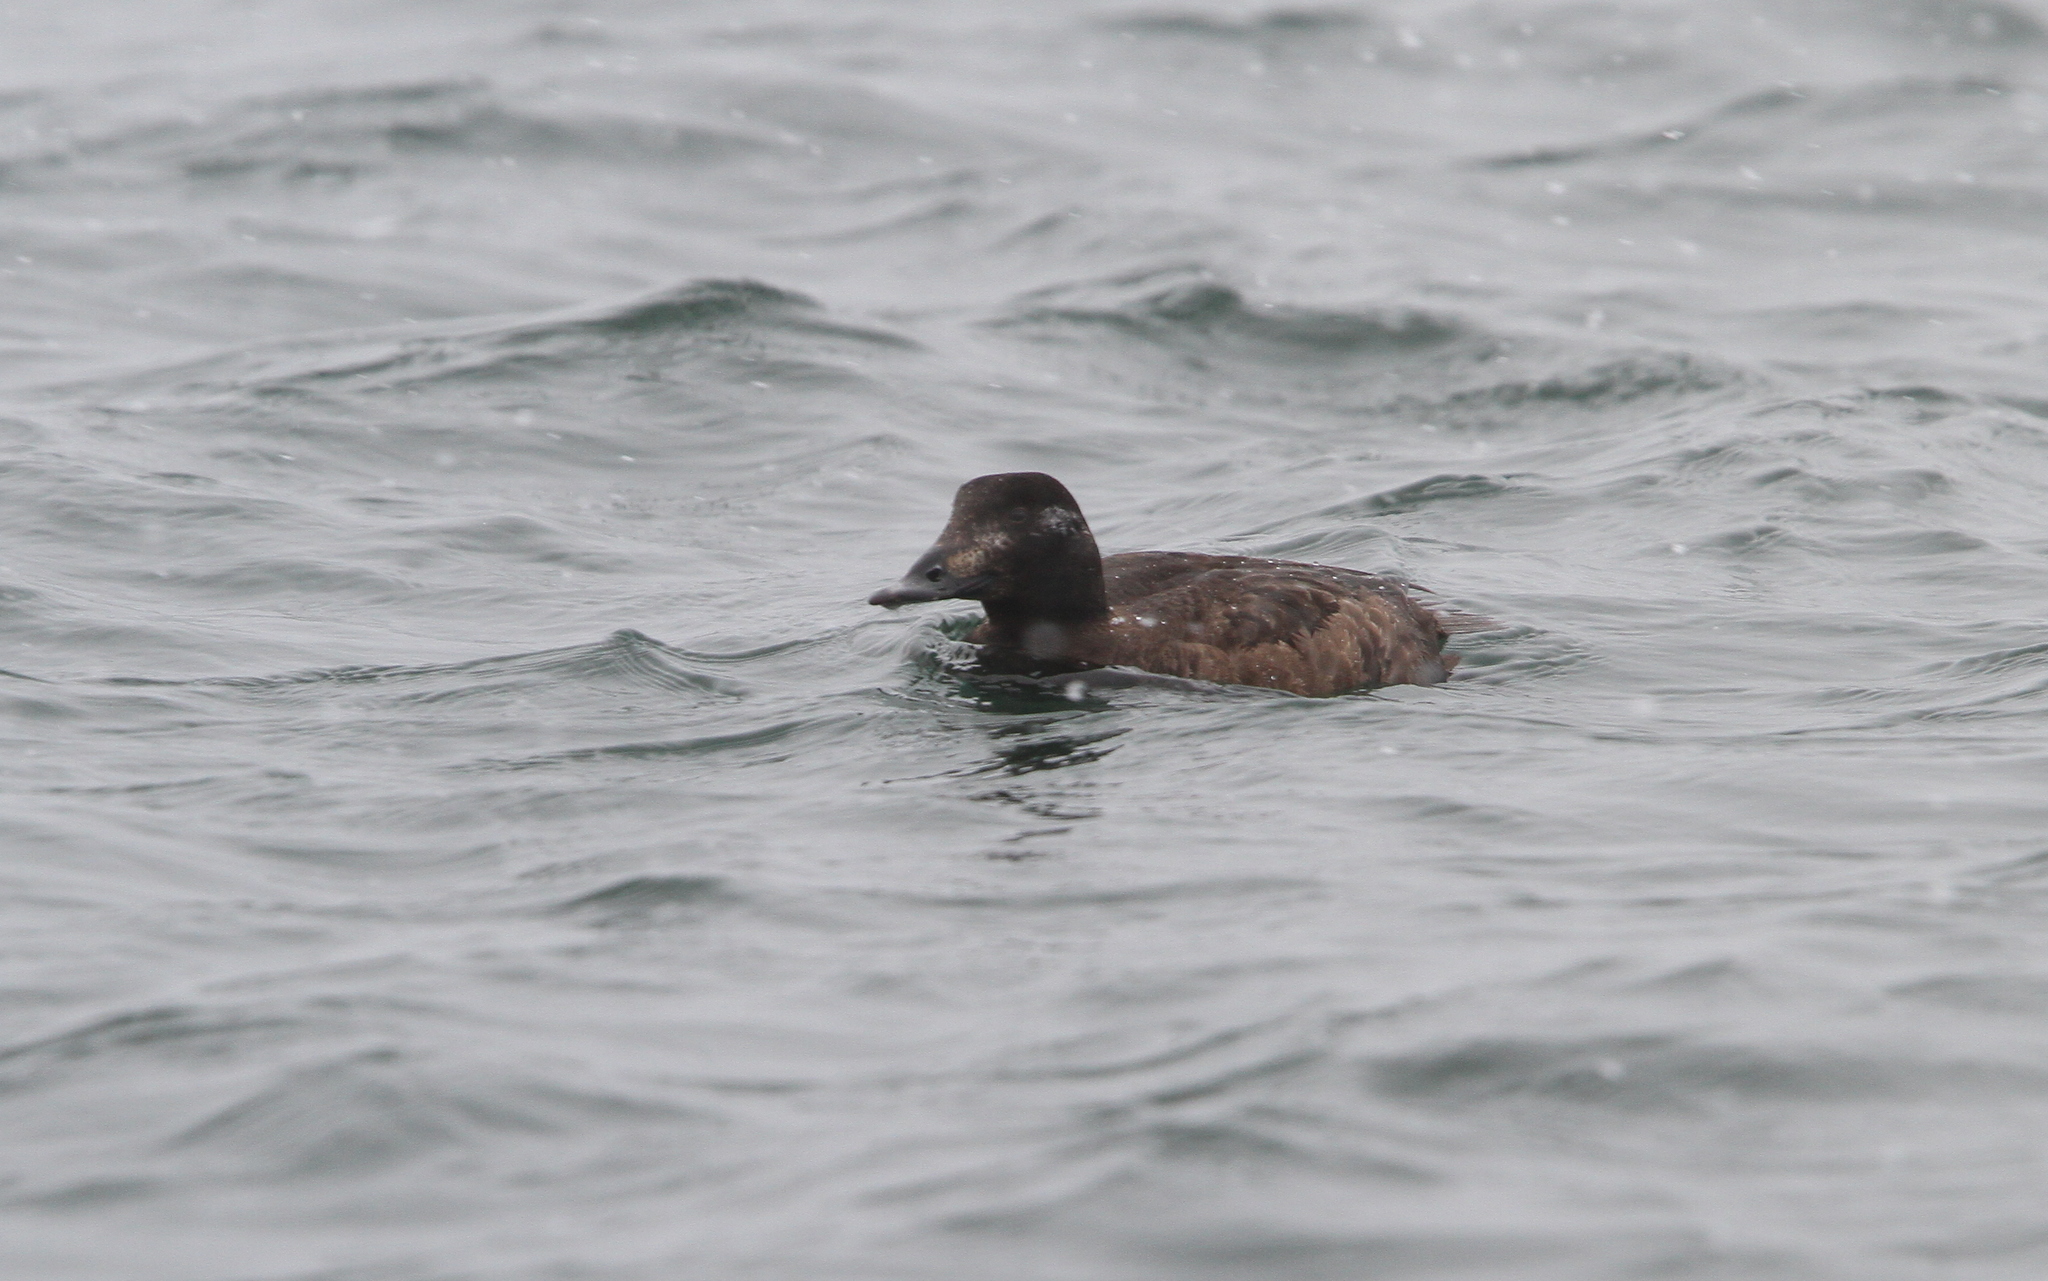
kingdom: Animalia
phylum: Chordata
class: Aves
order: Anseriformes
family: Anatidae
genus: Melanitta
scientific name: Melanitta deglandi
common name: White-winged scoter
